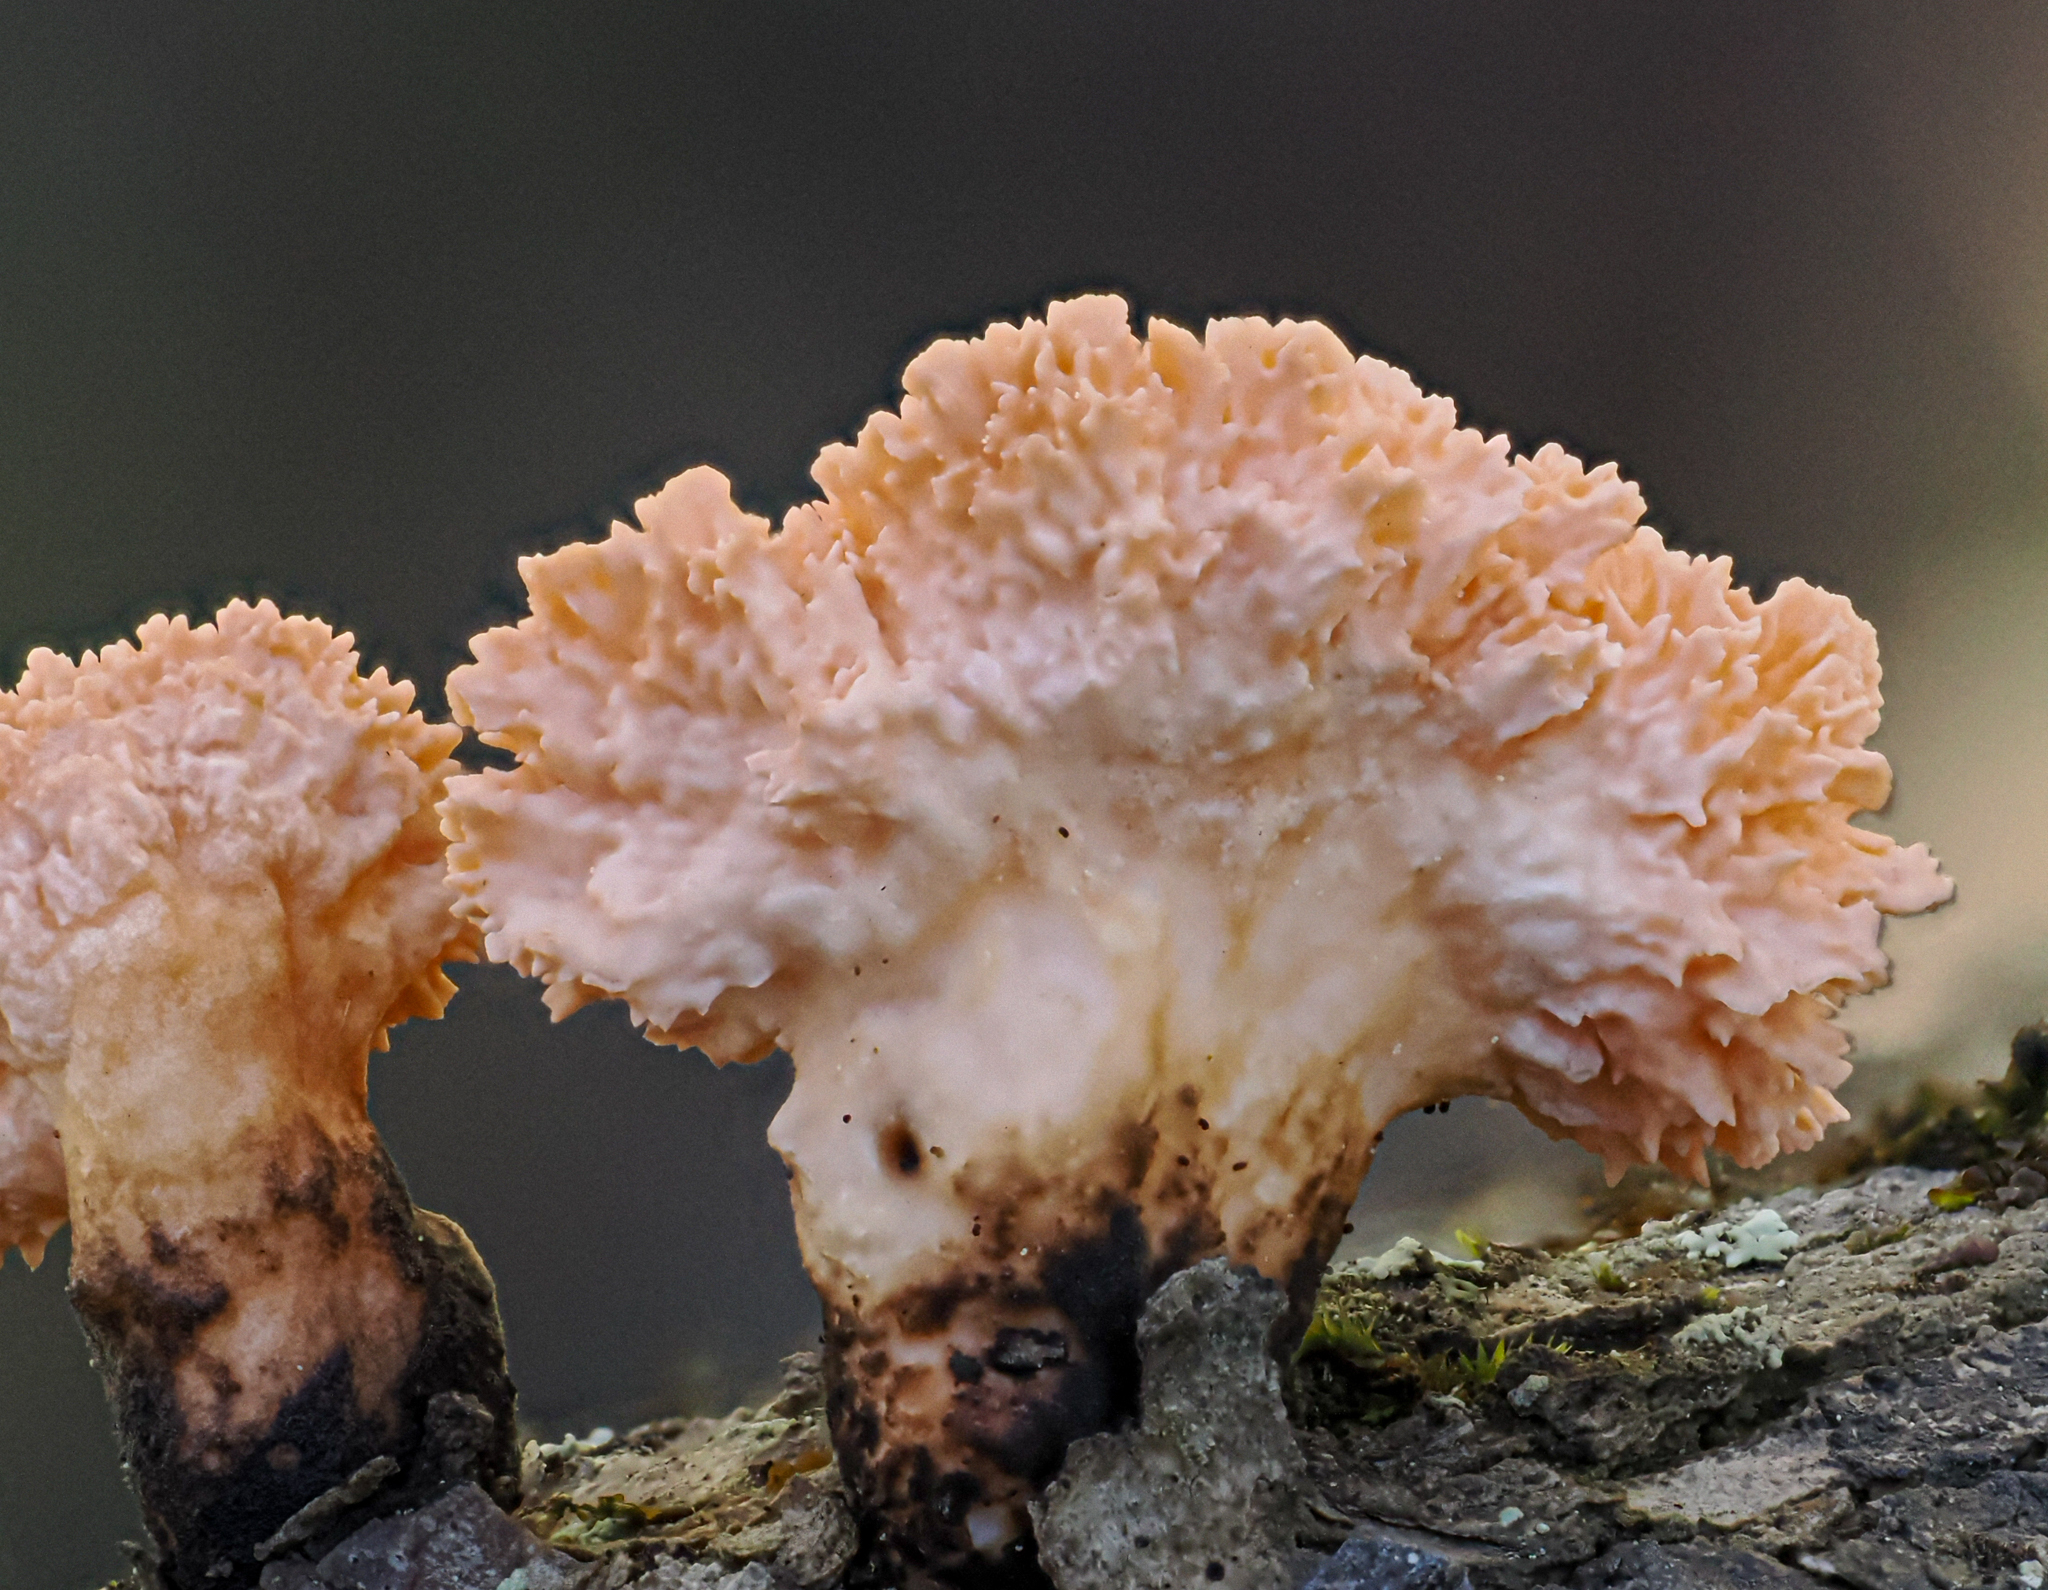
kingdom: Fungi
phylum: Ascomycota
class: Sordariomycetes
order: Xylariales
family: Xylariaceae
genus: Xylaria
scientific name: Xylaria cubensis
